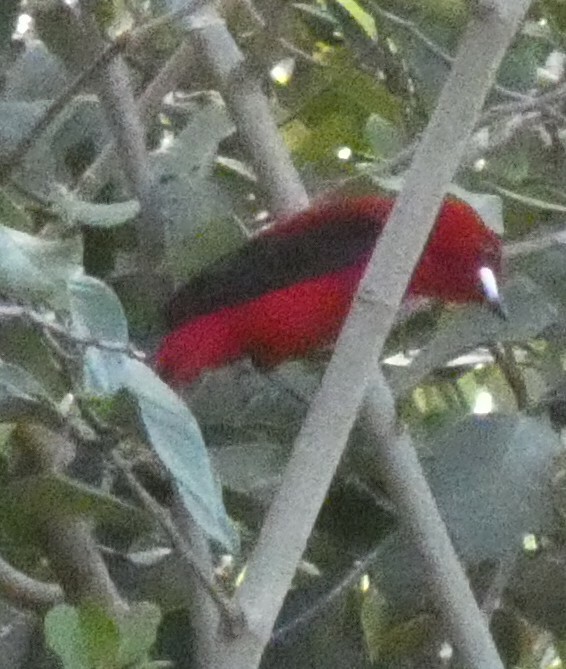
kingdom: Animalia
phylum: Chordata
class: Aves
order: Passeriformes
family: Thraupidae
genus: Ramphocelus
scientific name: Ramphocelus bresilia
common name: Brazilian tanager
